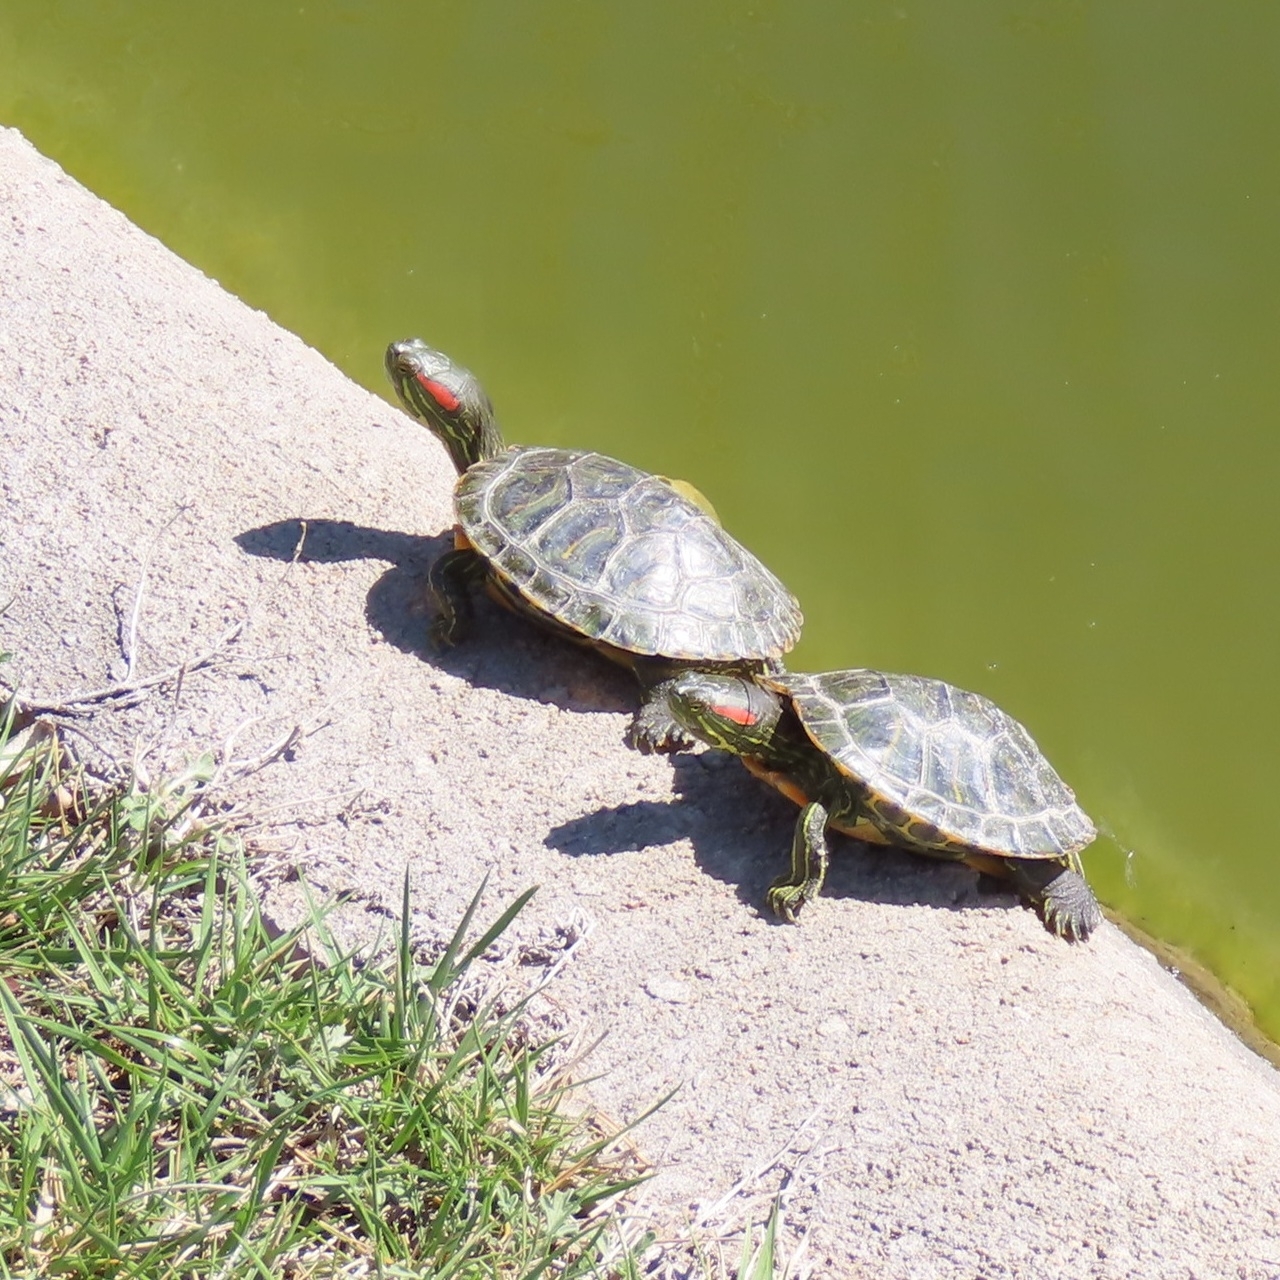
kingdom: Animalia
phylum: Chordata
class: Testudines
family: Emydidae
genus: Trachemys
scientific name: Trachemys scripta
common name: Slider
